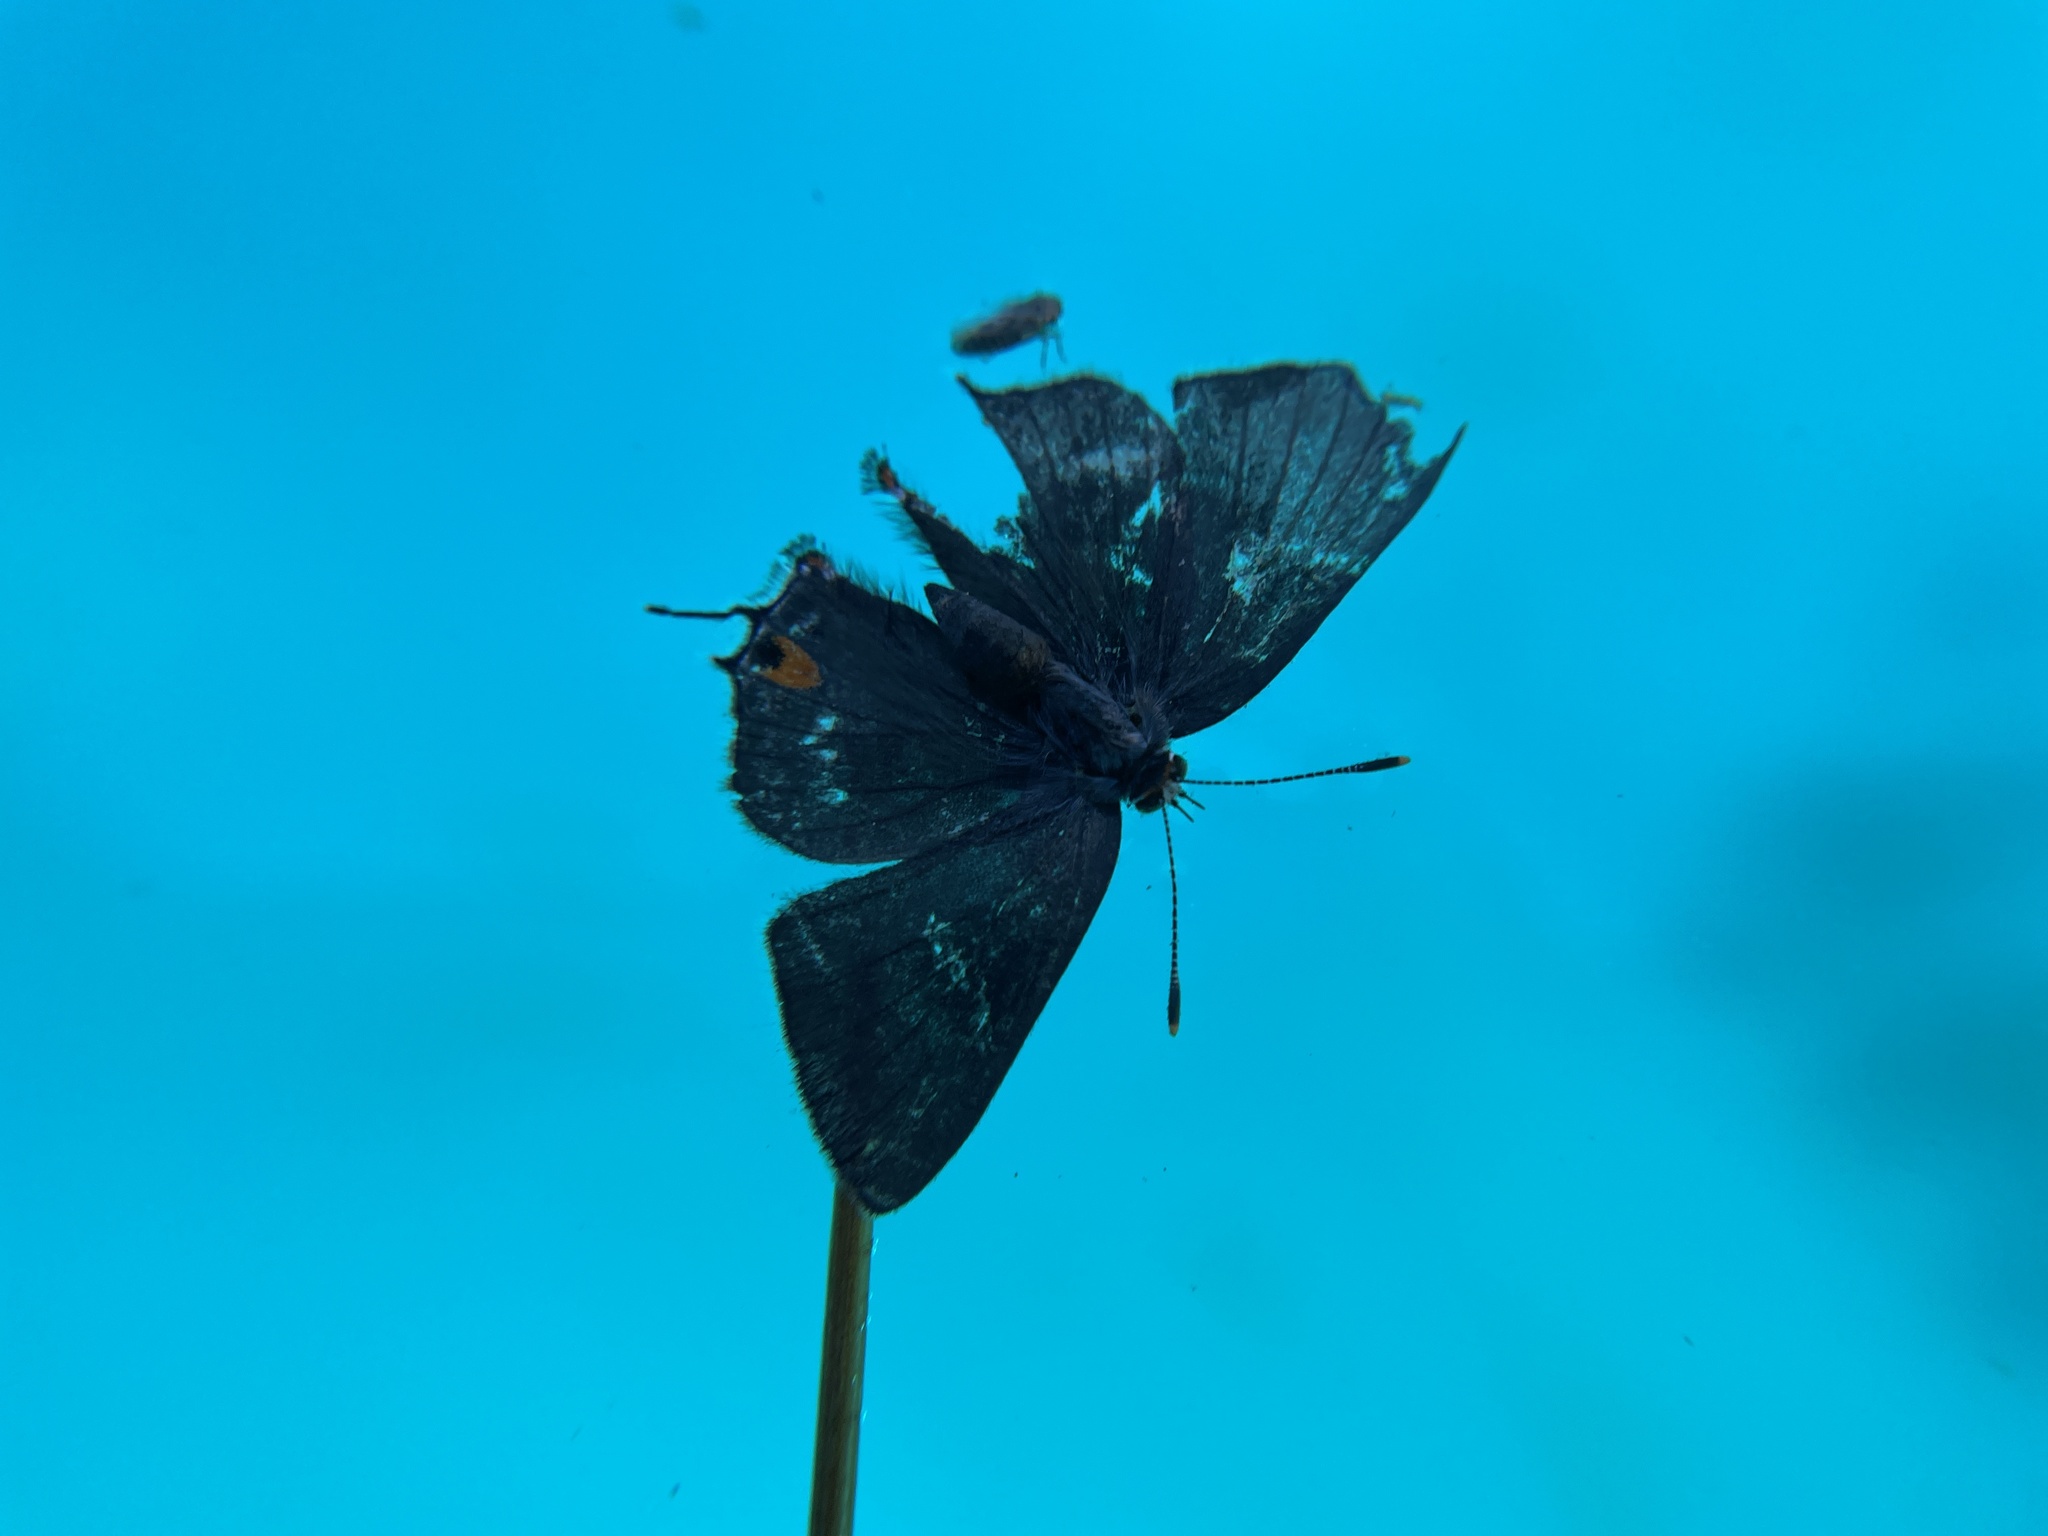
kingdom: Animalia
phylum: Arthropoda
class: Insecta
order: Lepidoptera
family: Lycaenidae
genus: Strymon
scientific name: Strymon melinus
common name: Gray hairstreak
